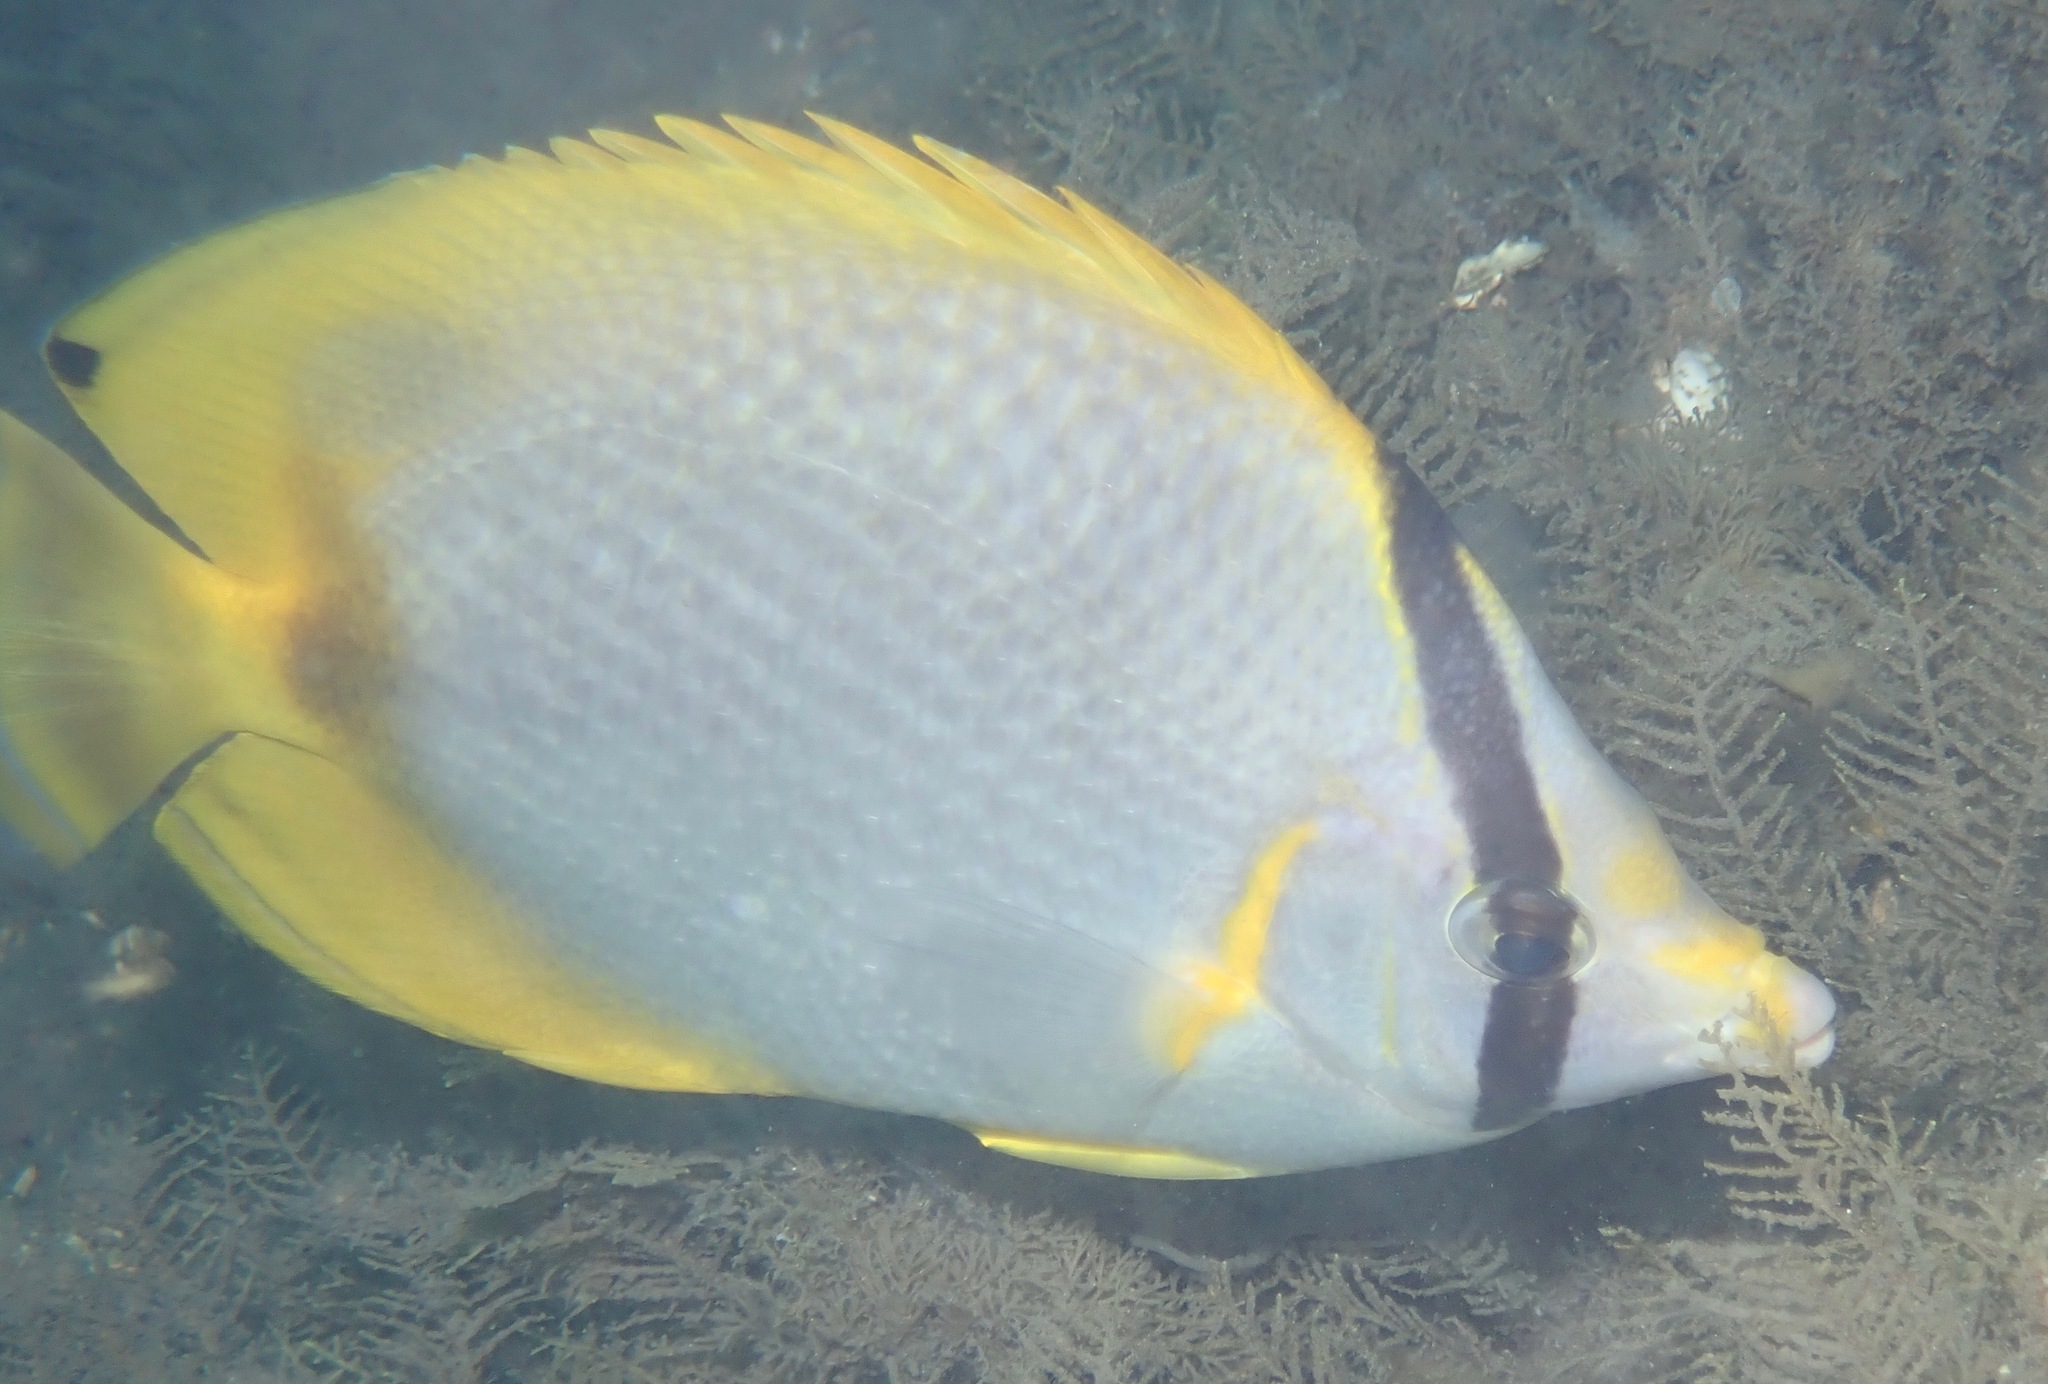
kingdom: Animalia
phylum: Chordata
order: Perciformes
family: Chaetodontidae
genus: Chaetodon
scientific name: Chaetodon ocellatus
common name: Spotfin butterflyfish
